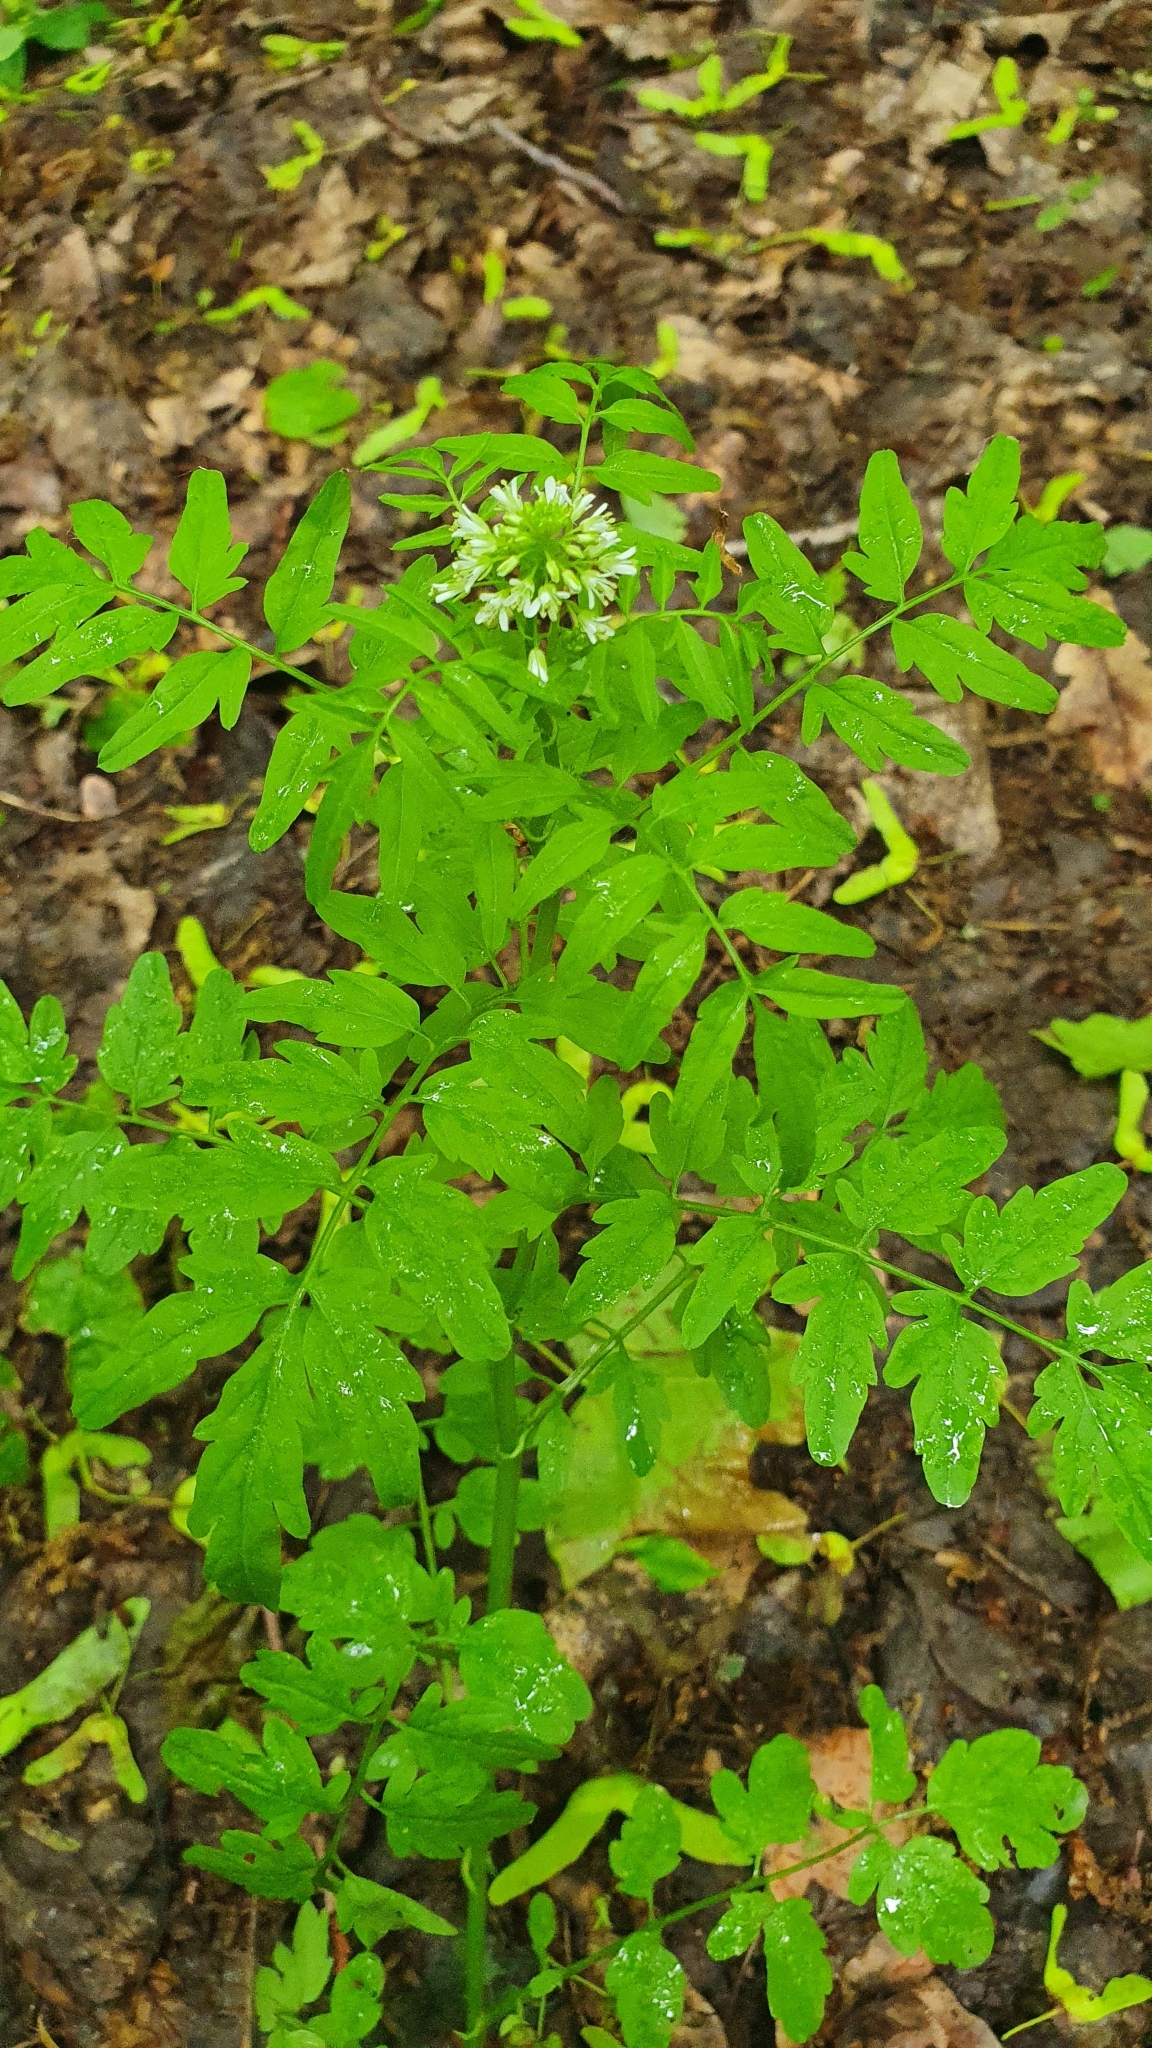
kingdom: Plantae
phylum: Tracheophyta
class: Magnoliopsida
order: Brassicales
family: Brassicaceae
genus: Cardamine
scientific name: Cardamine impatiens
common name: Narrow-leaved bitter-cress
